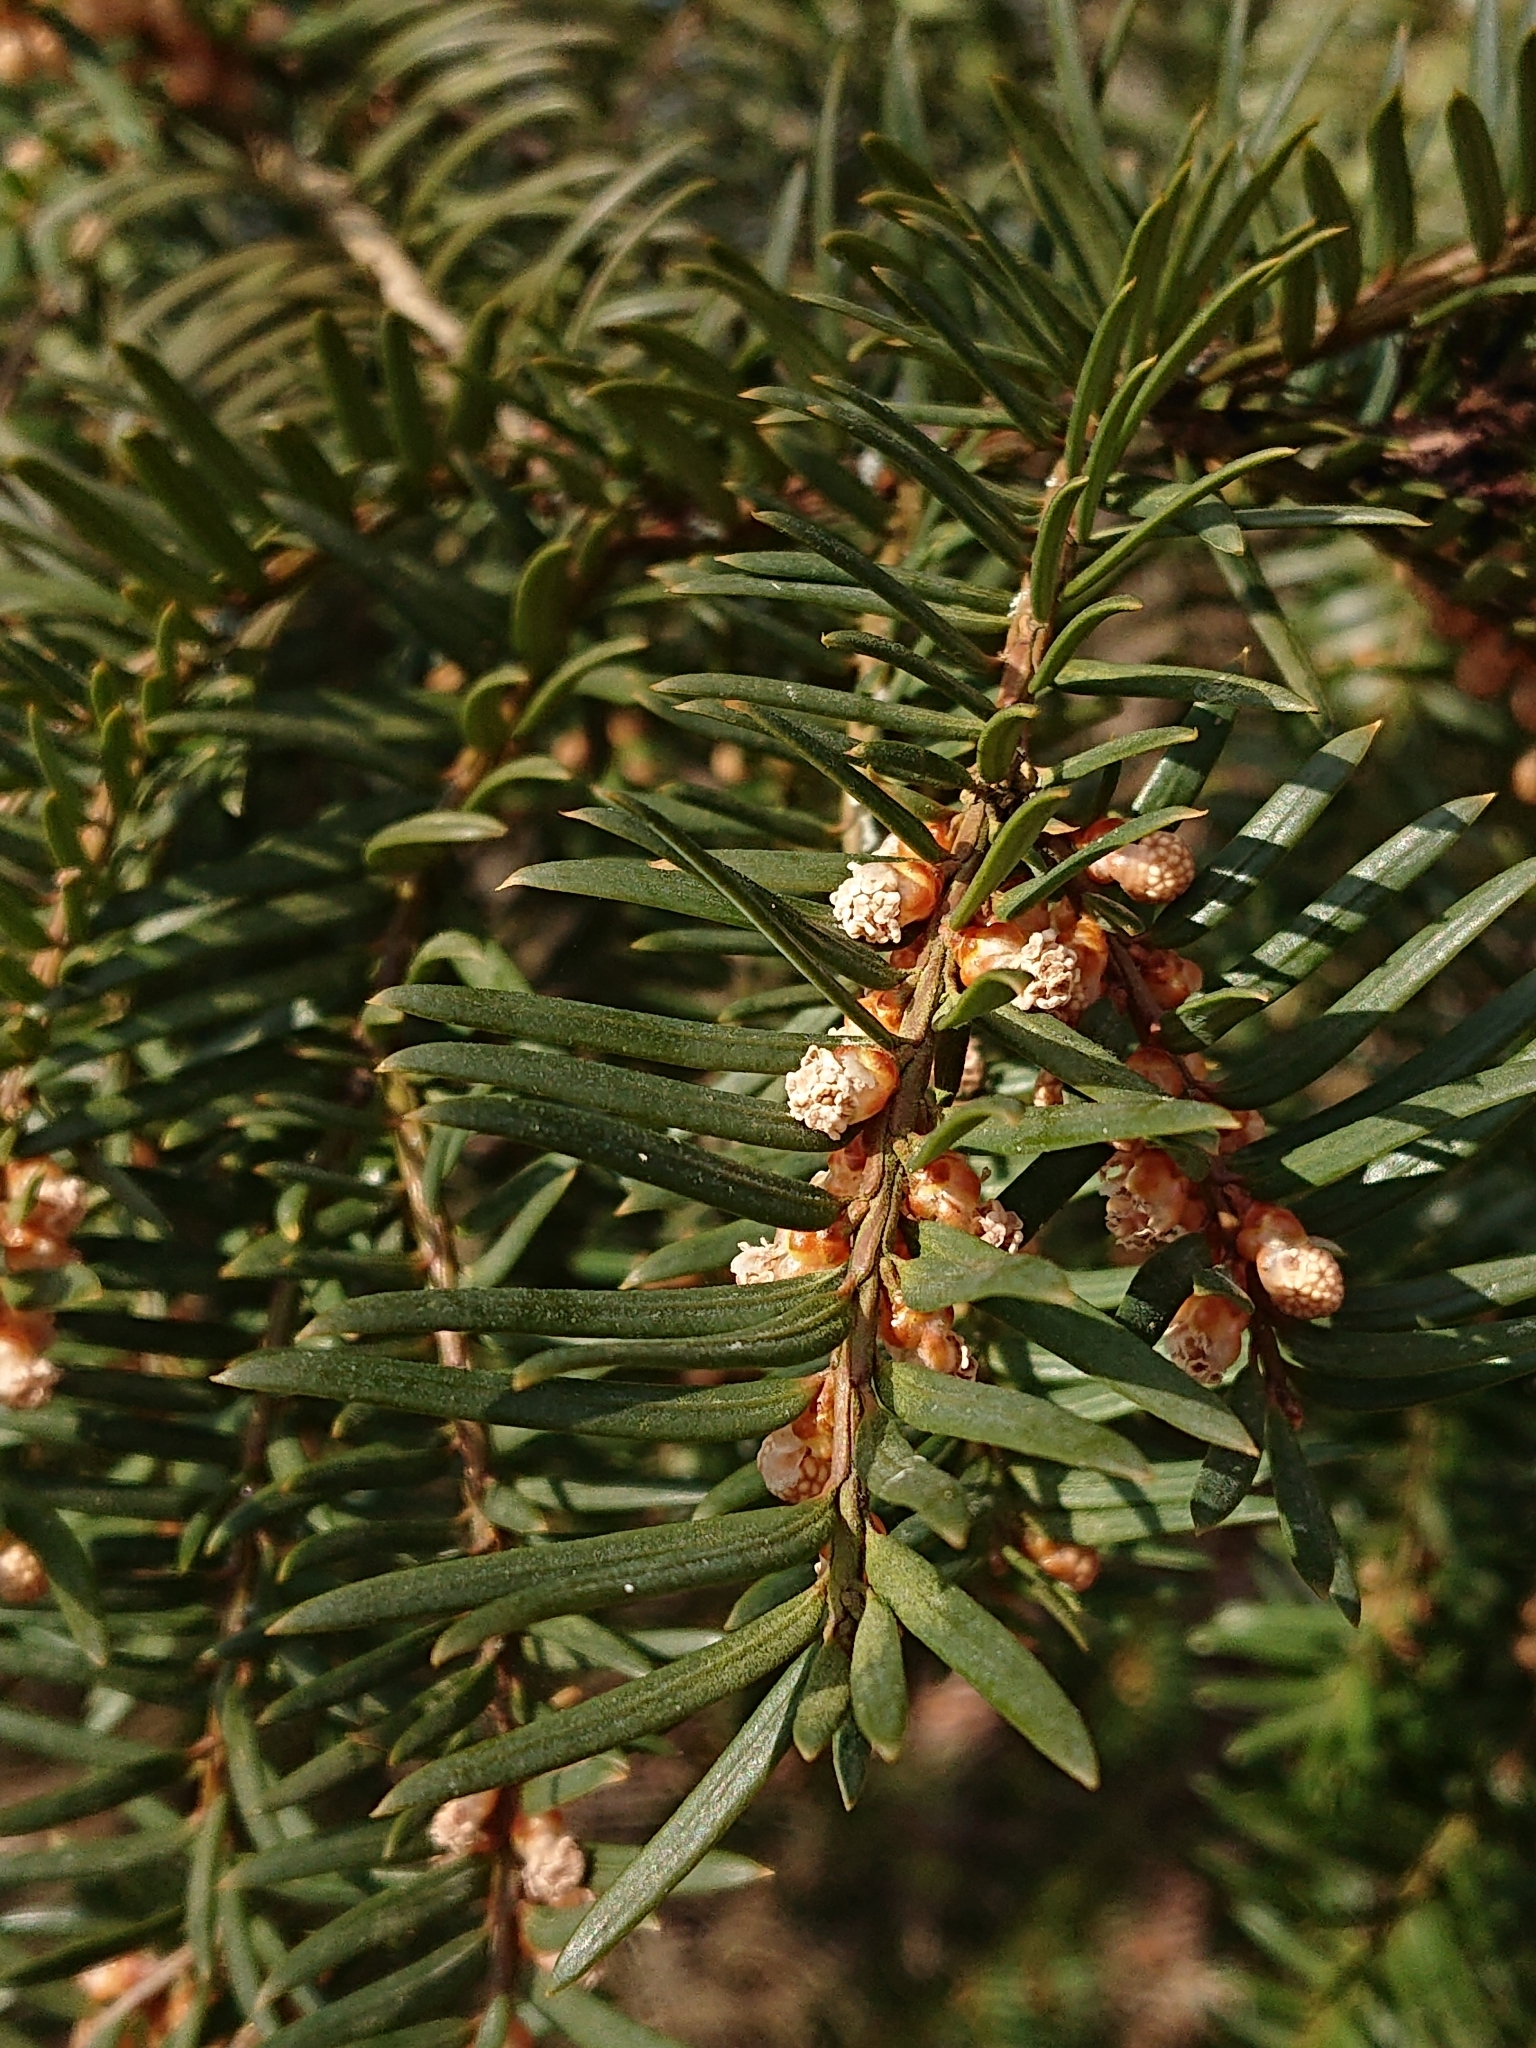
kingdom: Plantae
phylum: Tracheophyta
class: Pinopsida
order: Pinales
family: Taxaceae
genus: Taxus
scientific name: Taxus baccata
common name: Yew
